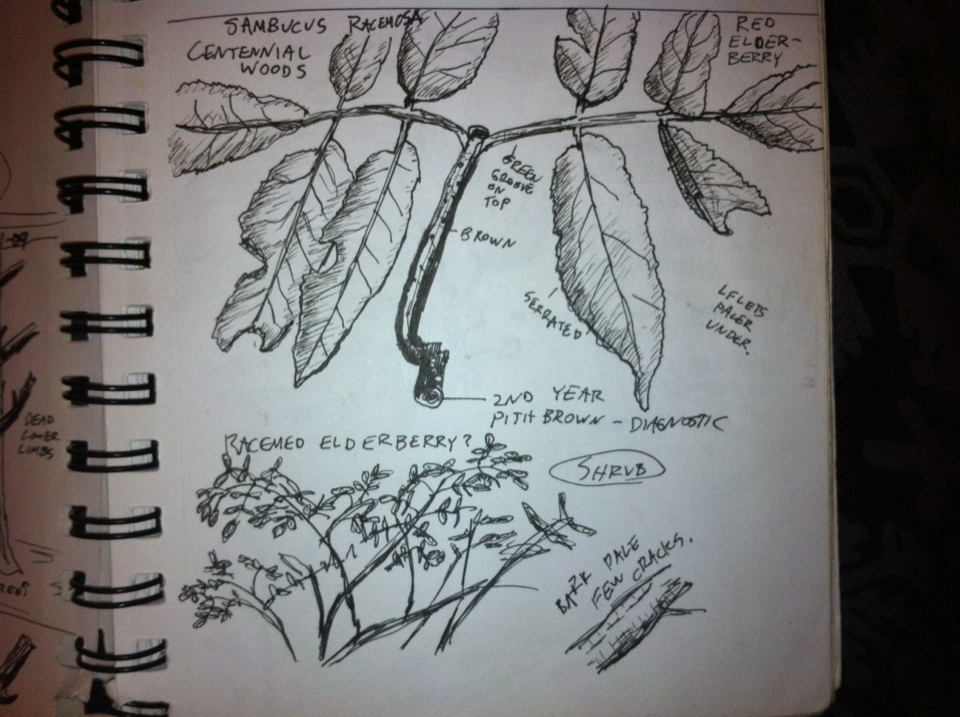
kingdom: Plantae
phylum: Tracheophyta
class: Magnoliopsida
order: Dipsacales
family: Viburnaceae
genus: Sambucus
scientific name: Sambucus racemosa
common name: Red-berried elder
